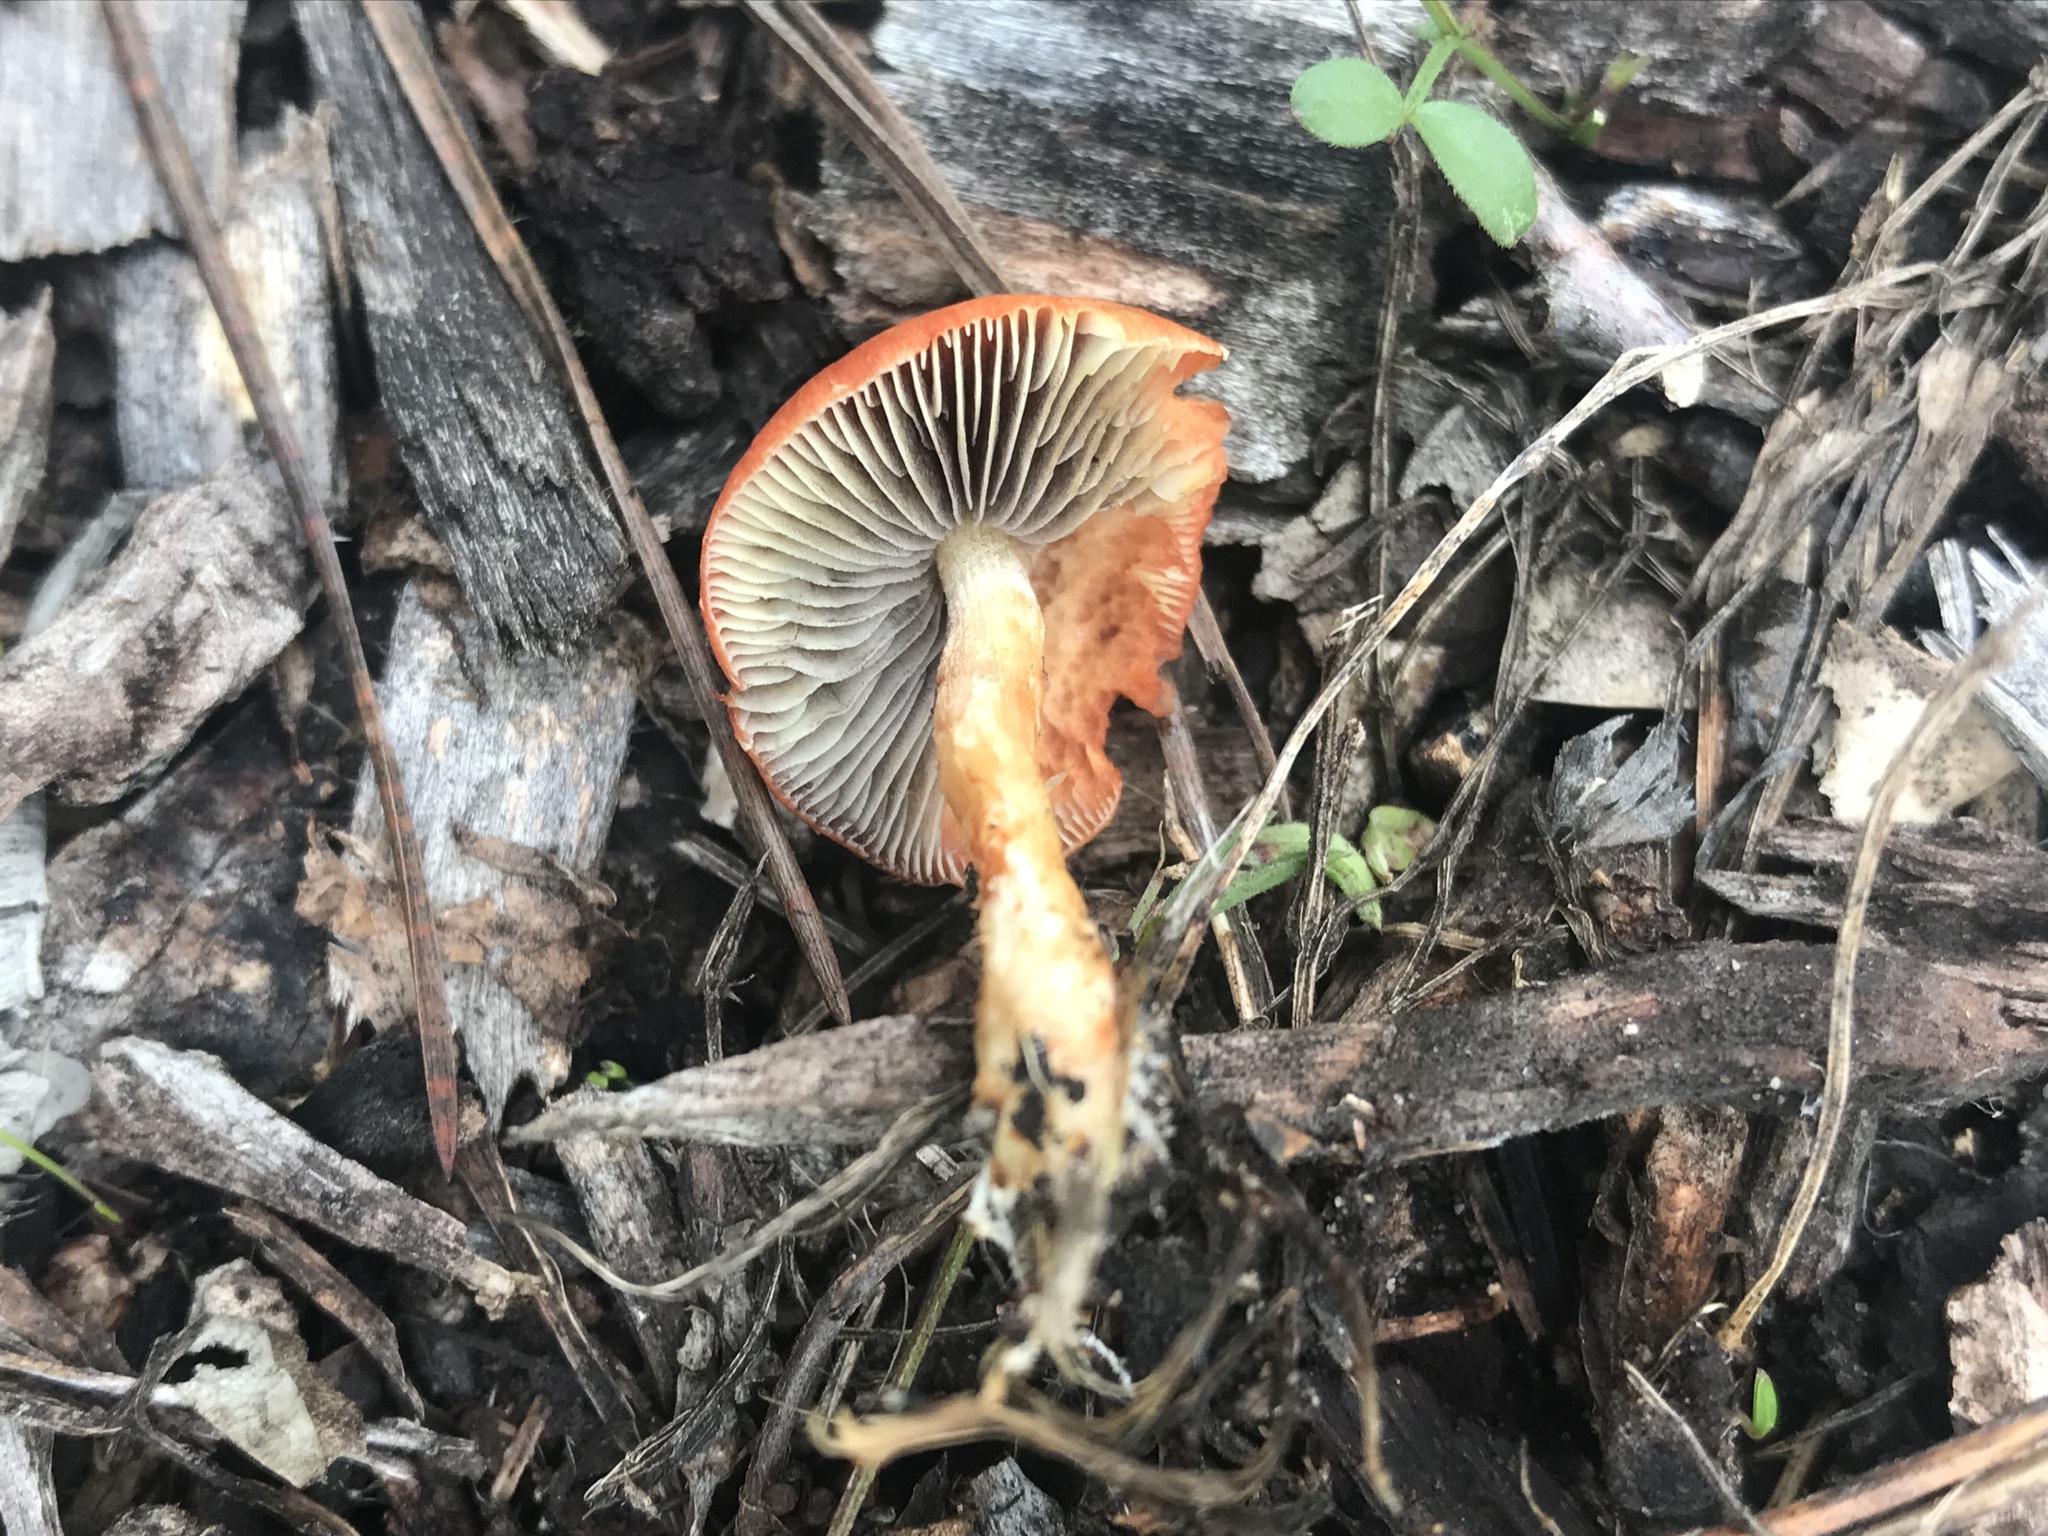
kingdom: Fungi
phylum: Basidiomycota
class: Agaricomycetes
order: Agaricales
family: Strophariaceae
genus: Leratiomyces
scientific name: Leratiomyces ceres
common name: Redlead roundhead
